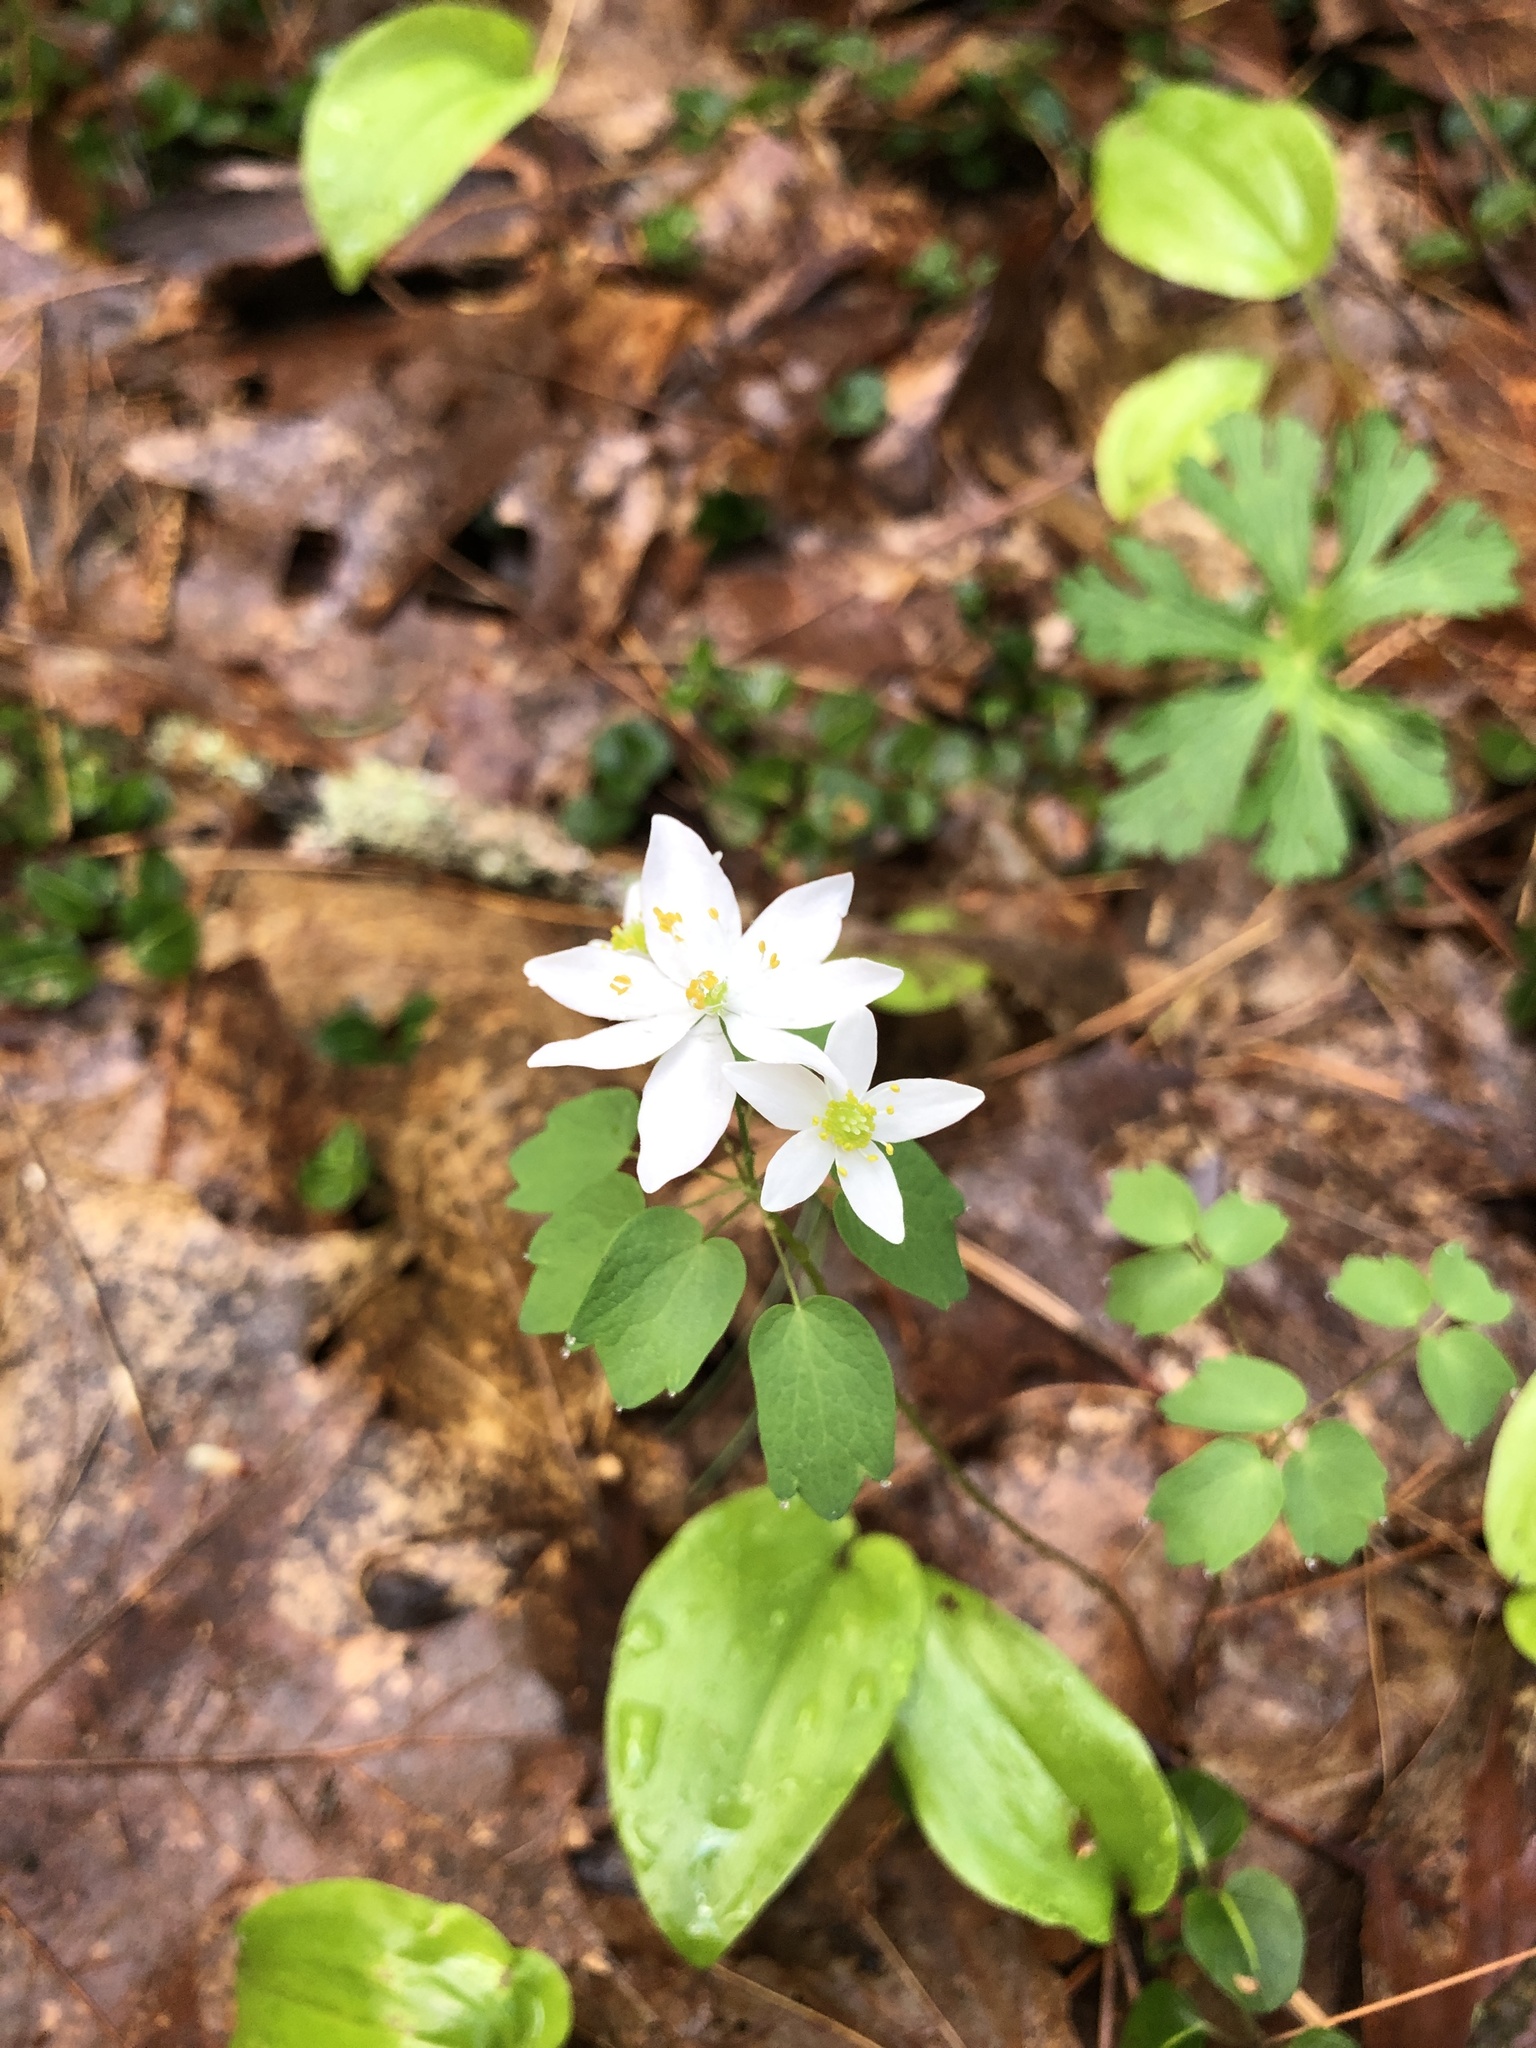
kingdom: Plantae
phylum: Tracheophyta
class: Magnoliopsida
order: Ranunculales
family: Ranunculaceae
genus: Thalictrum
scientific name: Thalictrum thalictroides
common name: Rue-anemone
